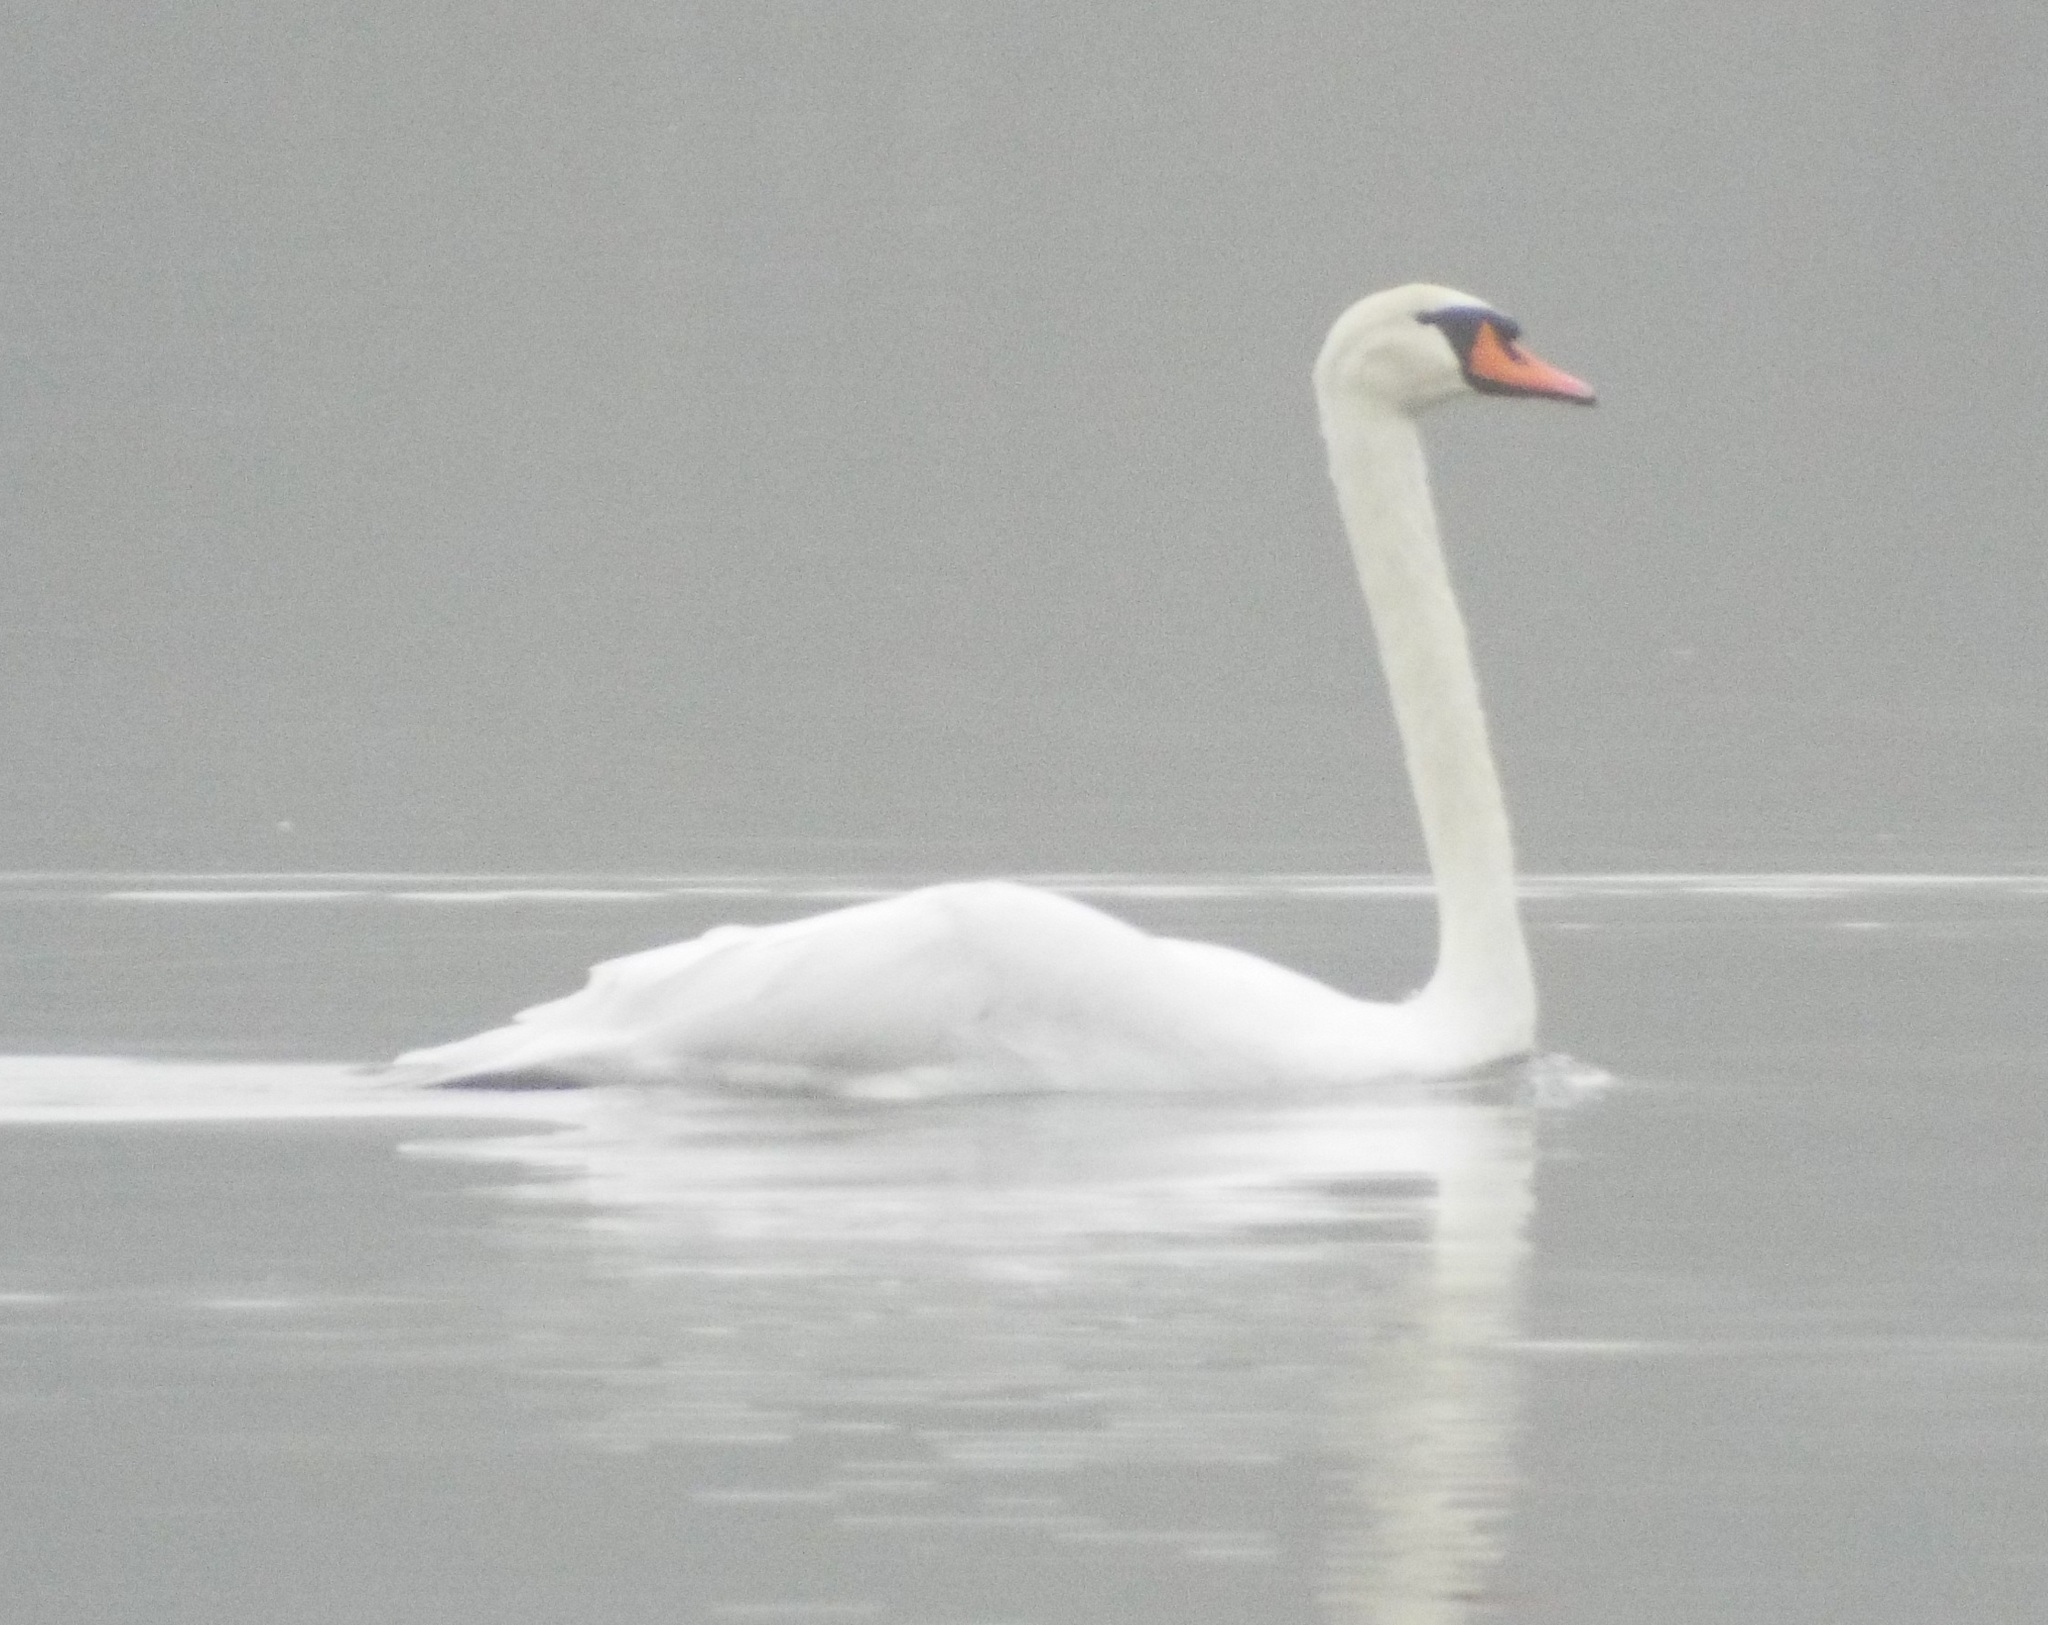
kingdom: Animalia
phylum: Chordata
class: Aves
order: Anseriformes
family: Anatidae
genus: Cygnus
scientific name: Cygnus olor
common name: Mute swan
